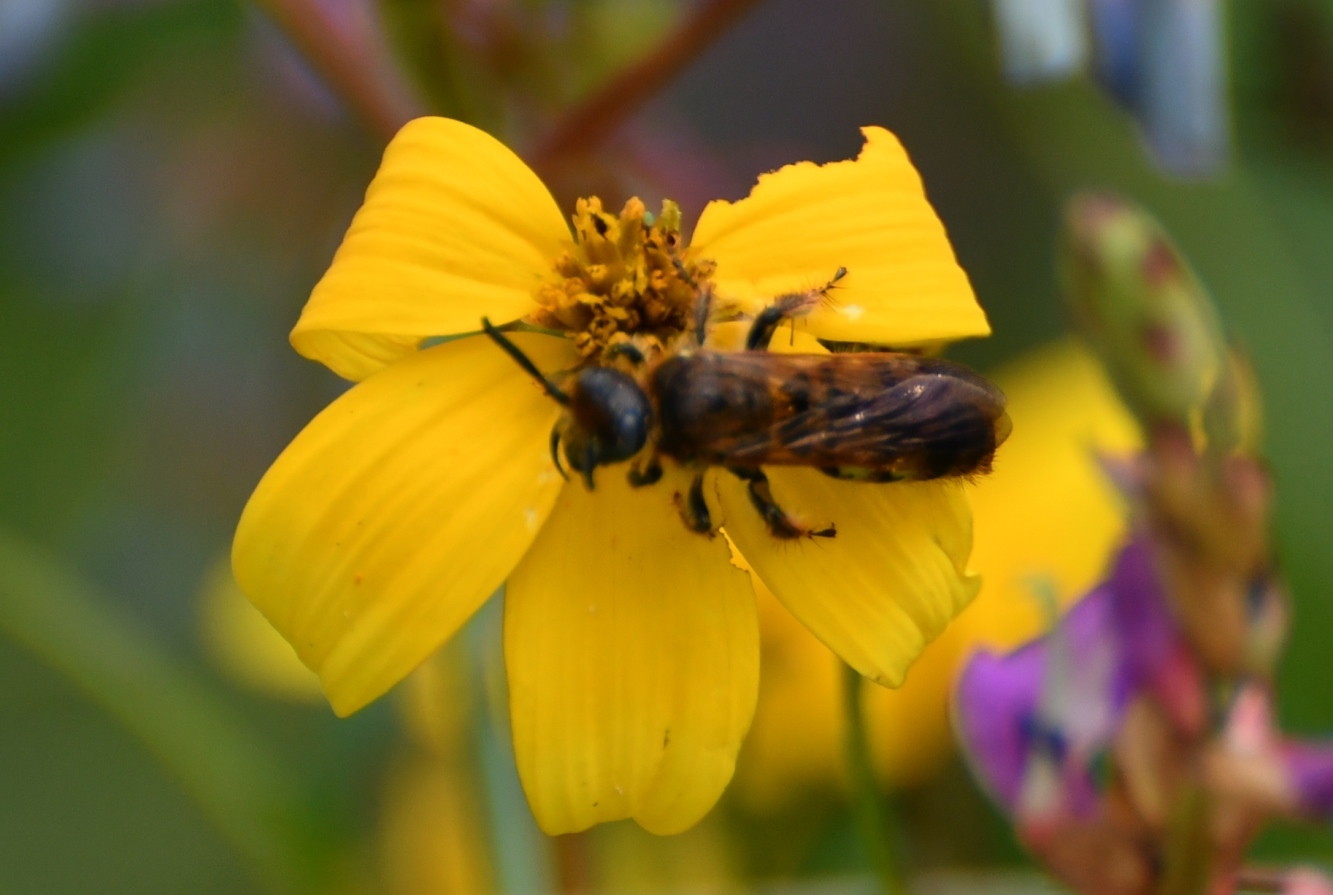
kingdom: Animalia
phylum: Arthropoda
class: Insecta
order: Hymenoptera
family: Scoliidae
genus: Xantocampsomeris
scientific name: Xantocampsomeris limosa
